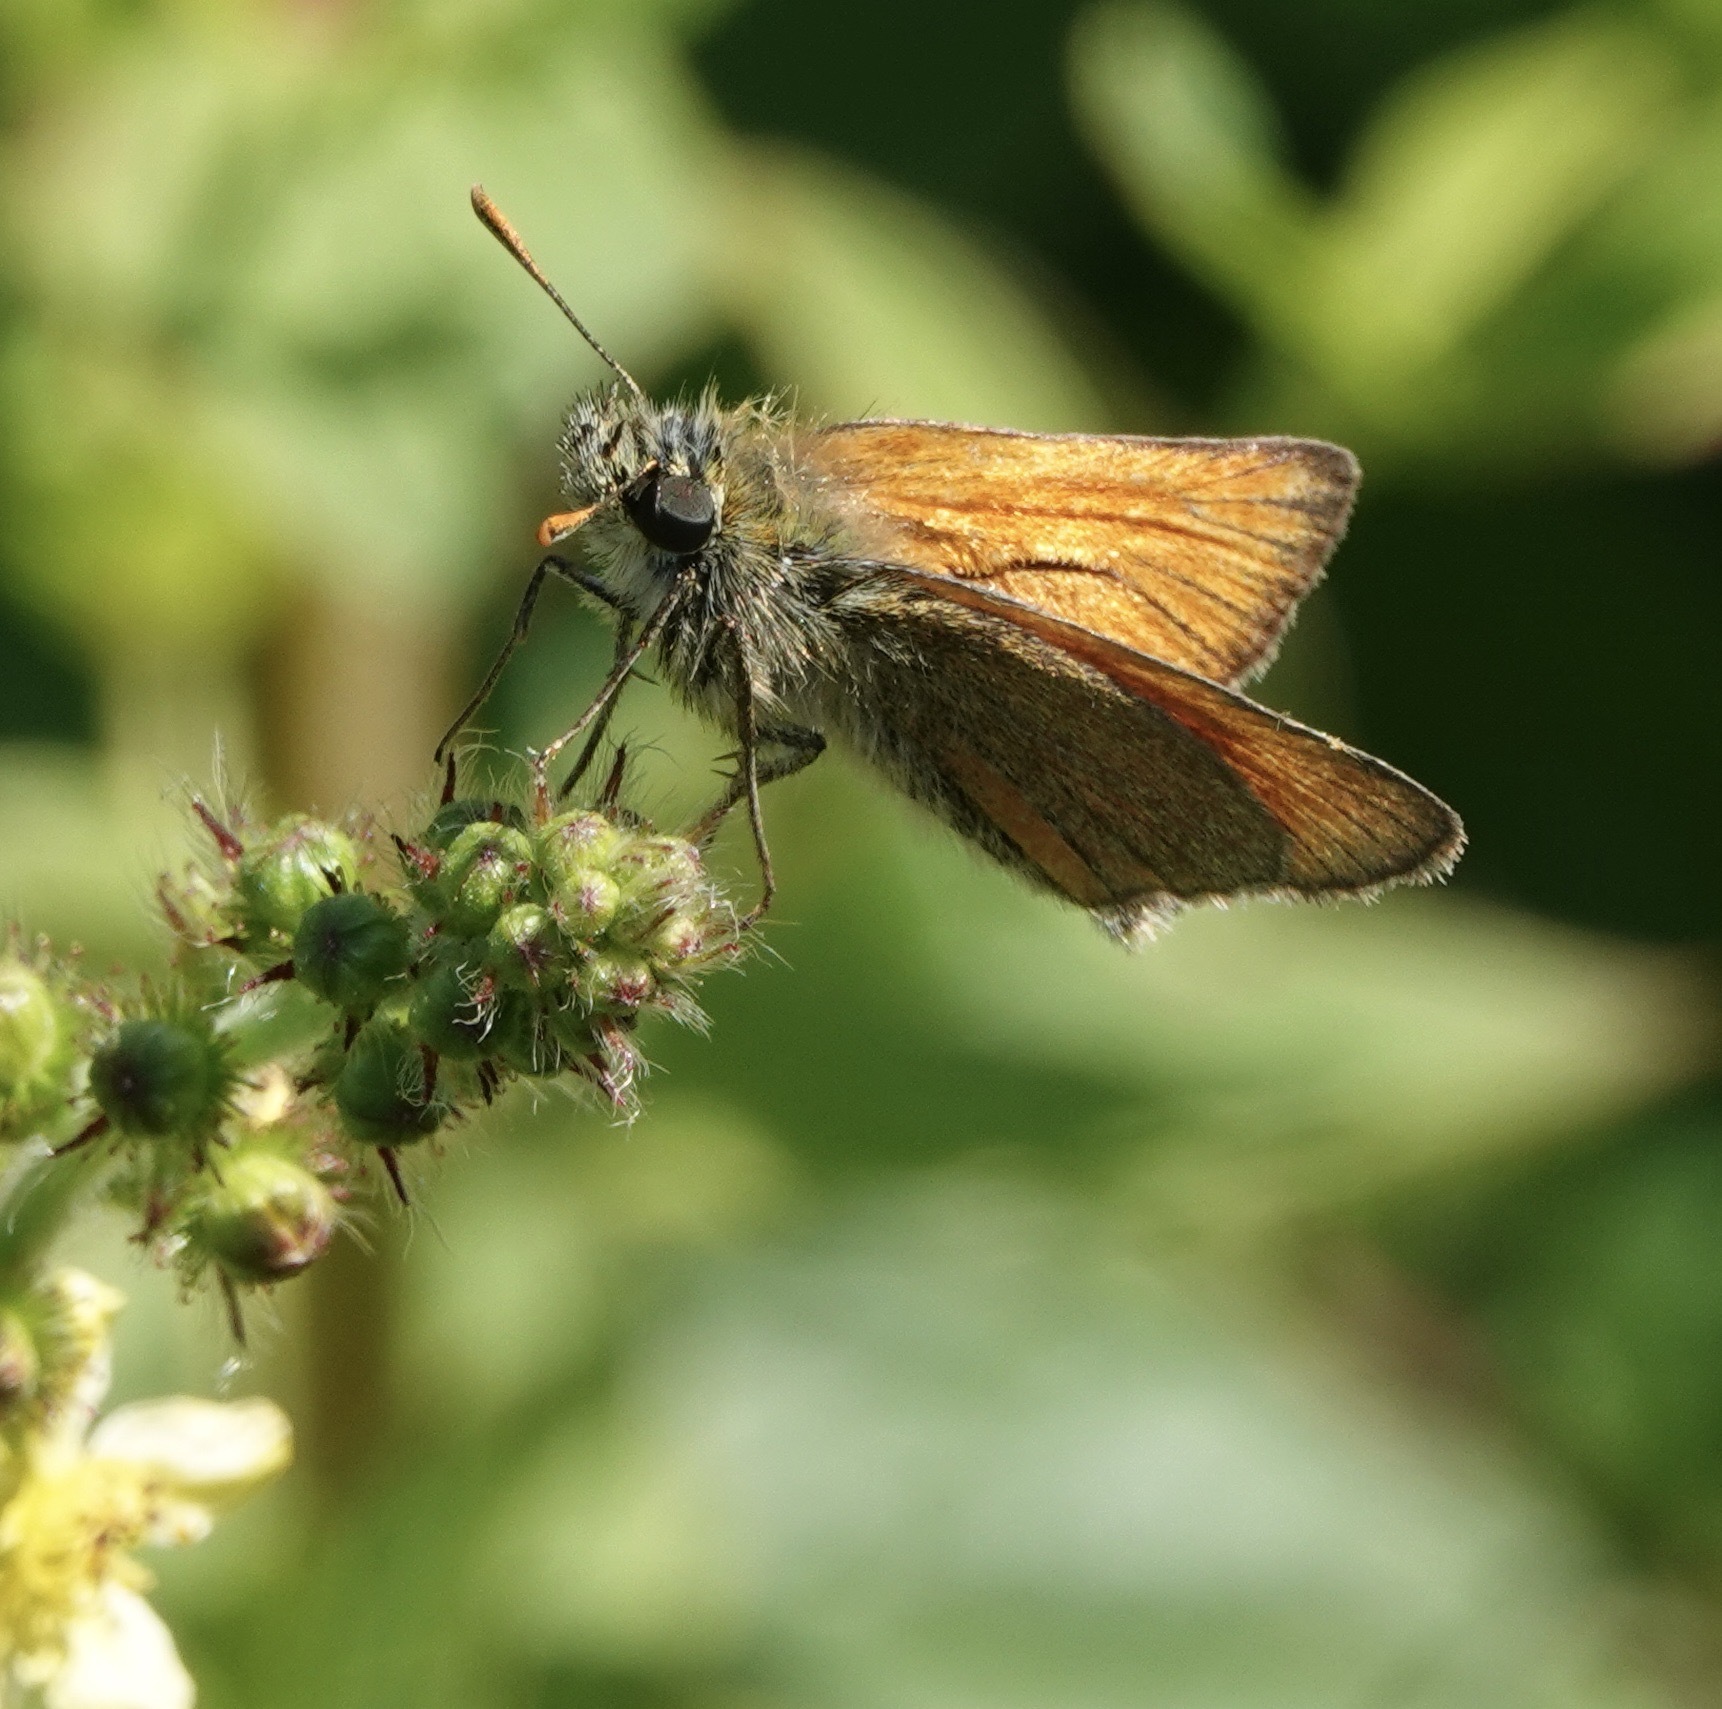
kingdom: Animalia
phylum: Arthropoda
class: Insecta
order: Lepidoptera
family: Hesperiidae
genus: Thymelicus
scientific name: Thymelicus sylvestris
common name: Small skipper
